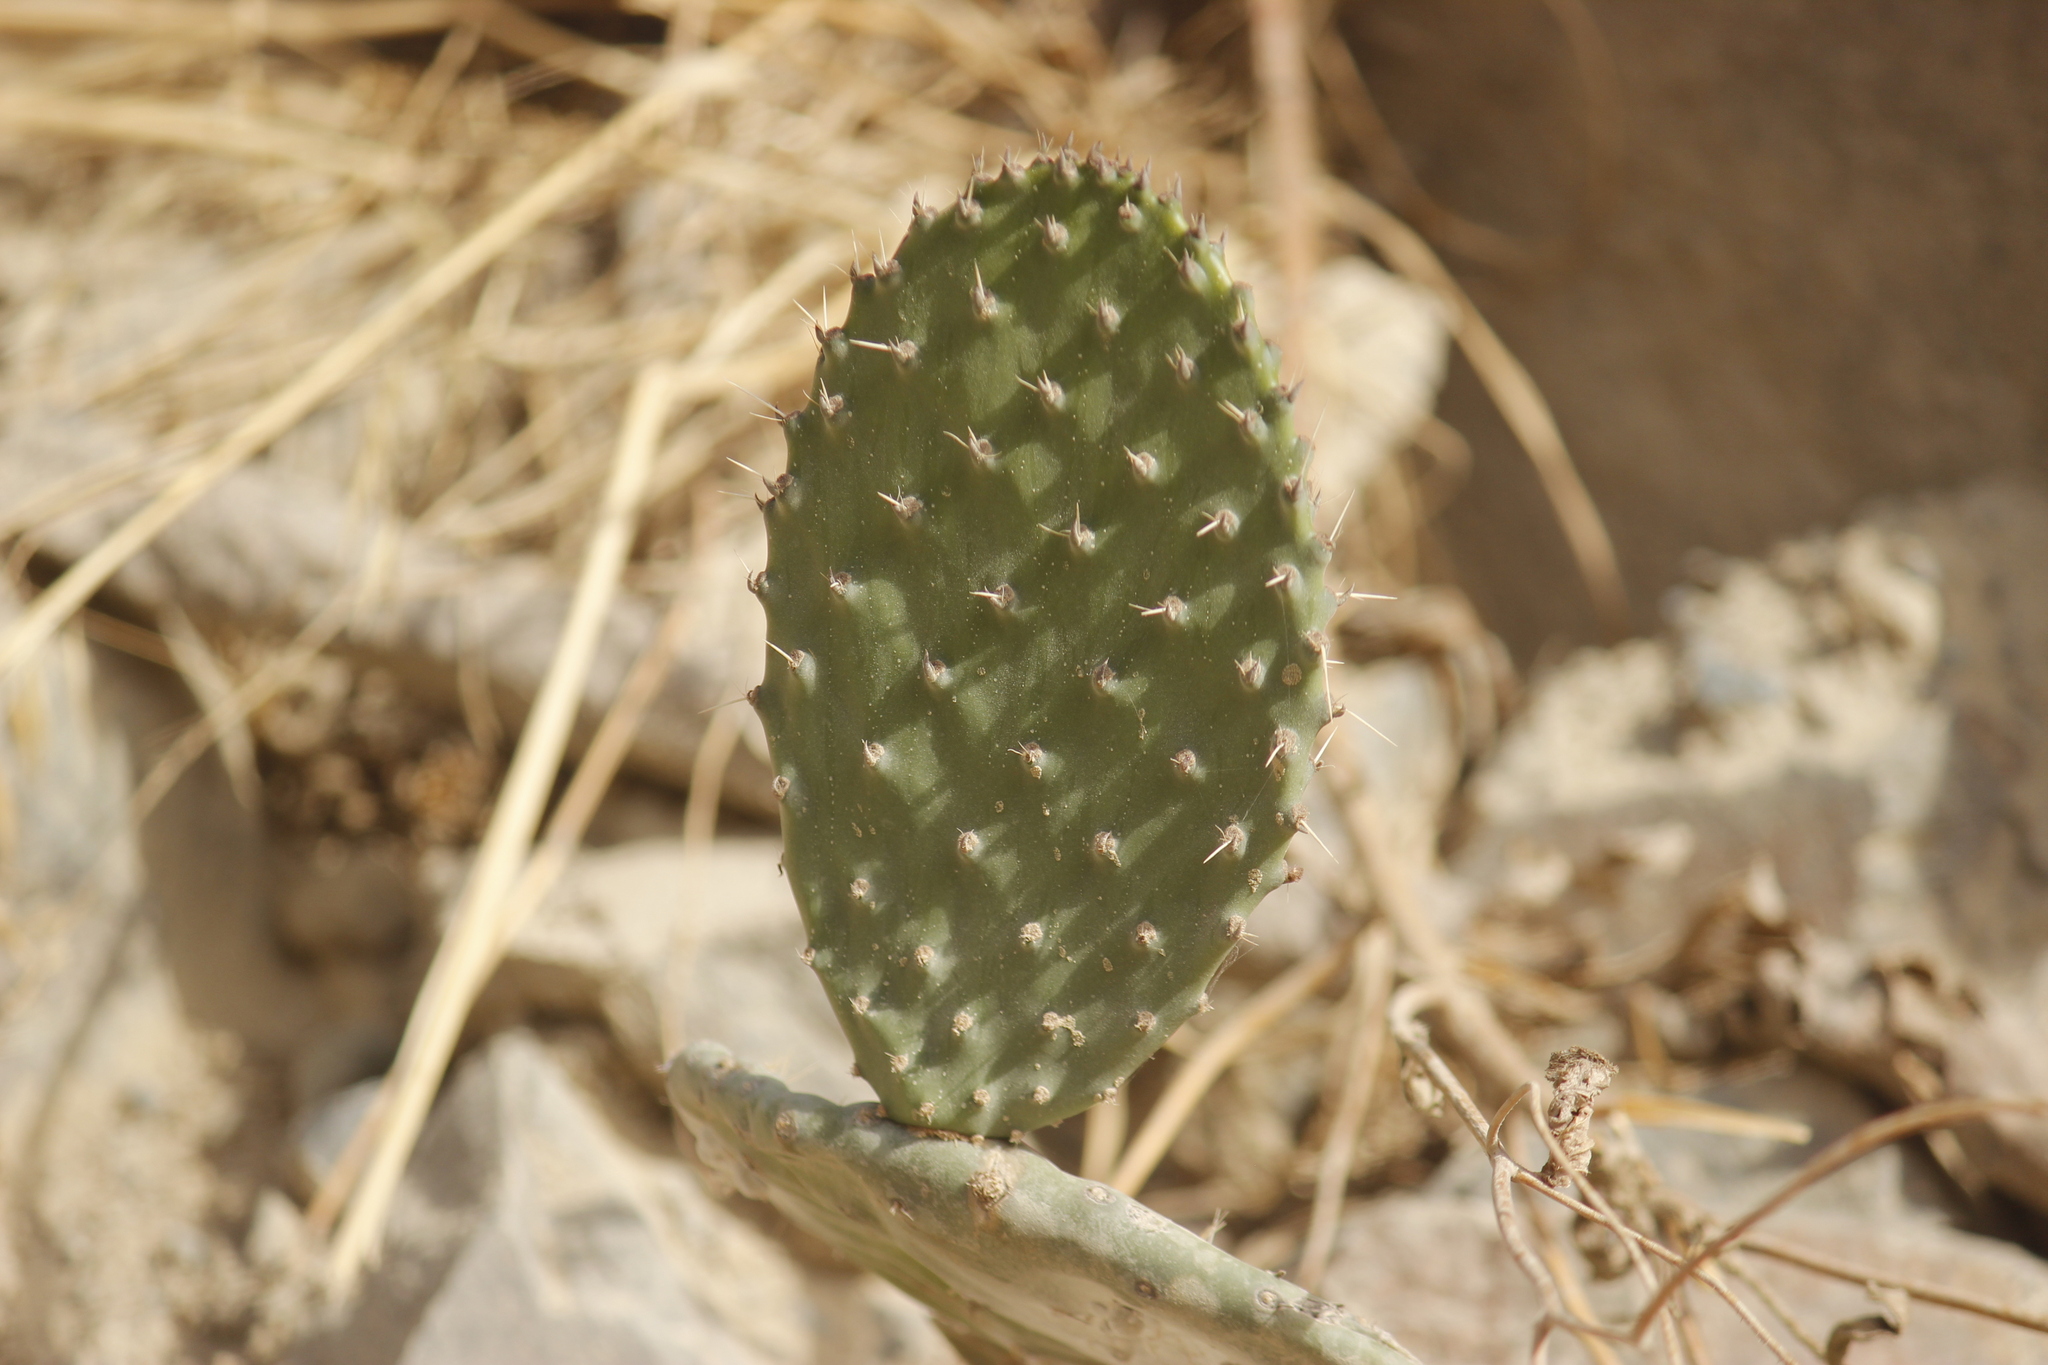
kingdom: Plantae
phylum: Tracheophyta
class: Magnoliopsida
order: Caryophyllales
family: Cactaceae
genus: Opuntia
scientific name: Opuntia ficus-indica
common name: Barbary fig
